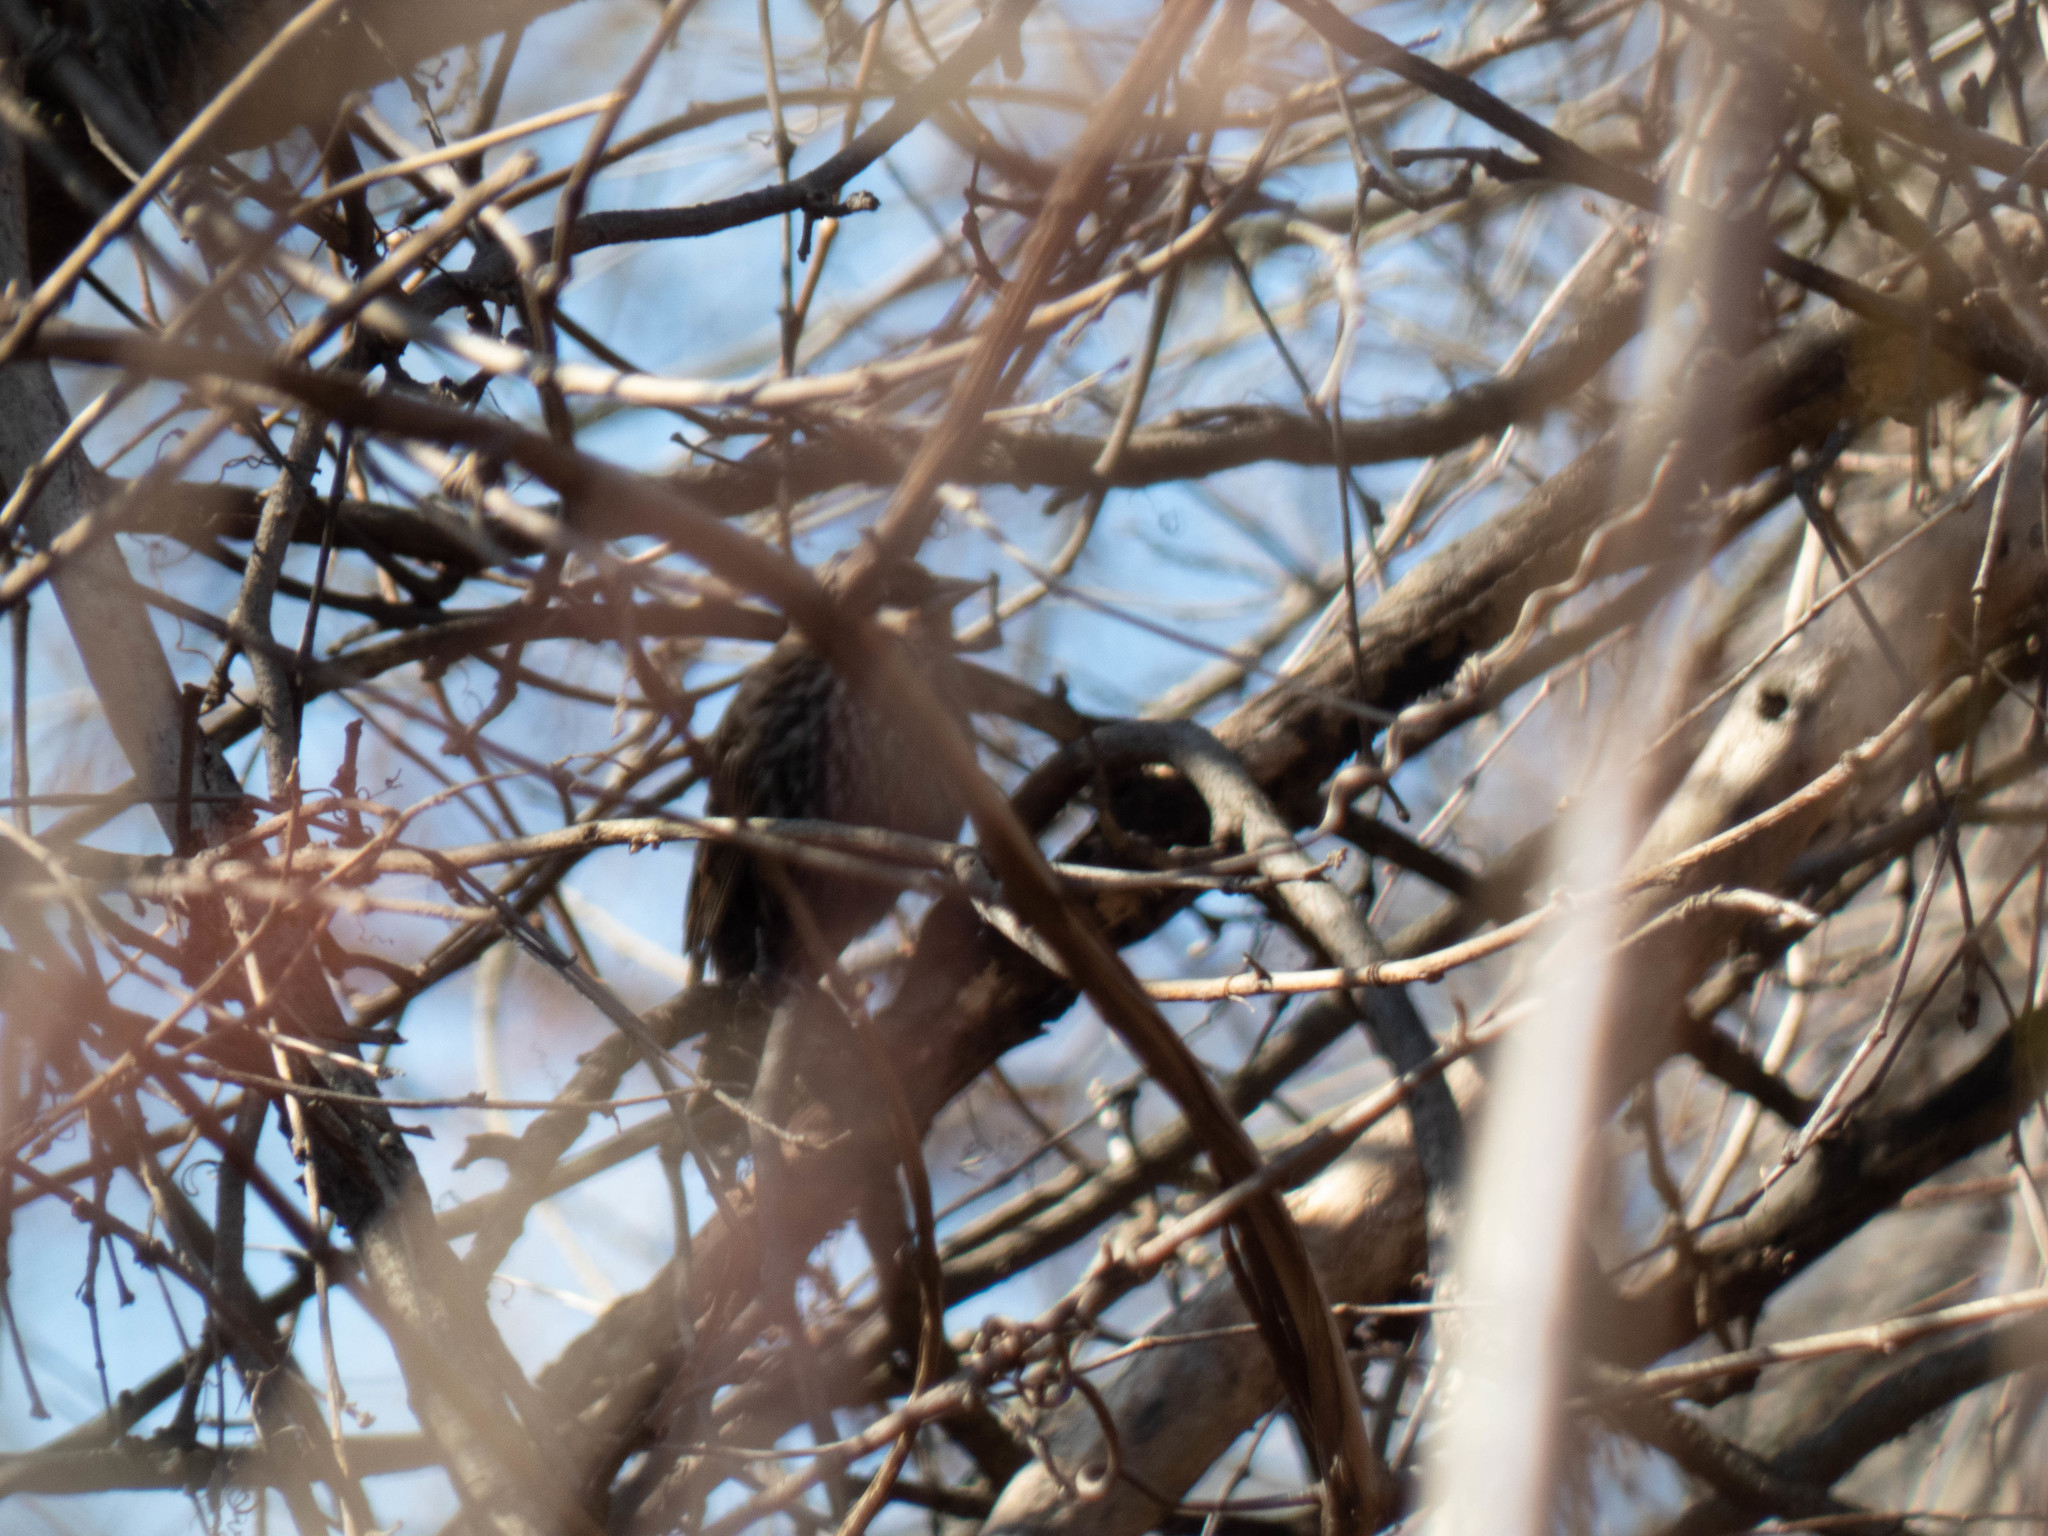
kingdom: Animalia
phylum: Chordata
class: Aves
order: Passeriformes
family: Icteridae
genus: Agelaius
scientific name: Agelaius phoeniceus
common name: Red-winged blackbird
